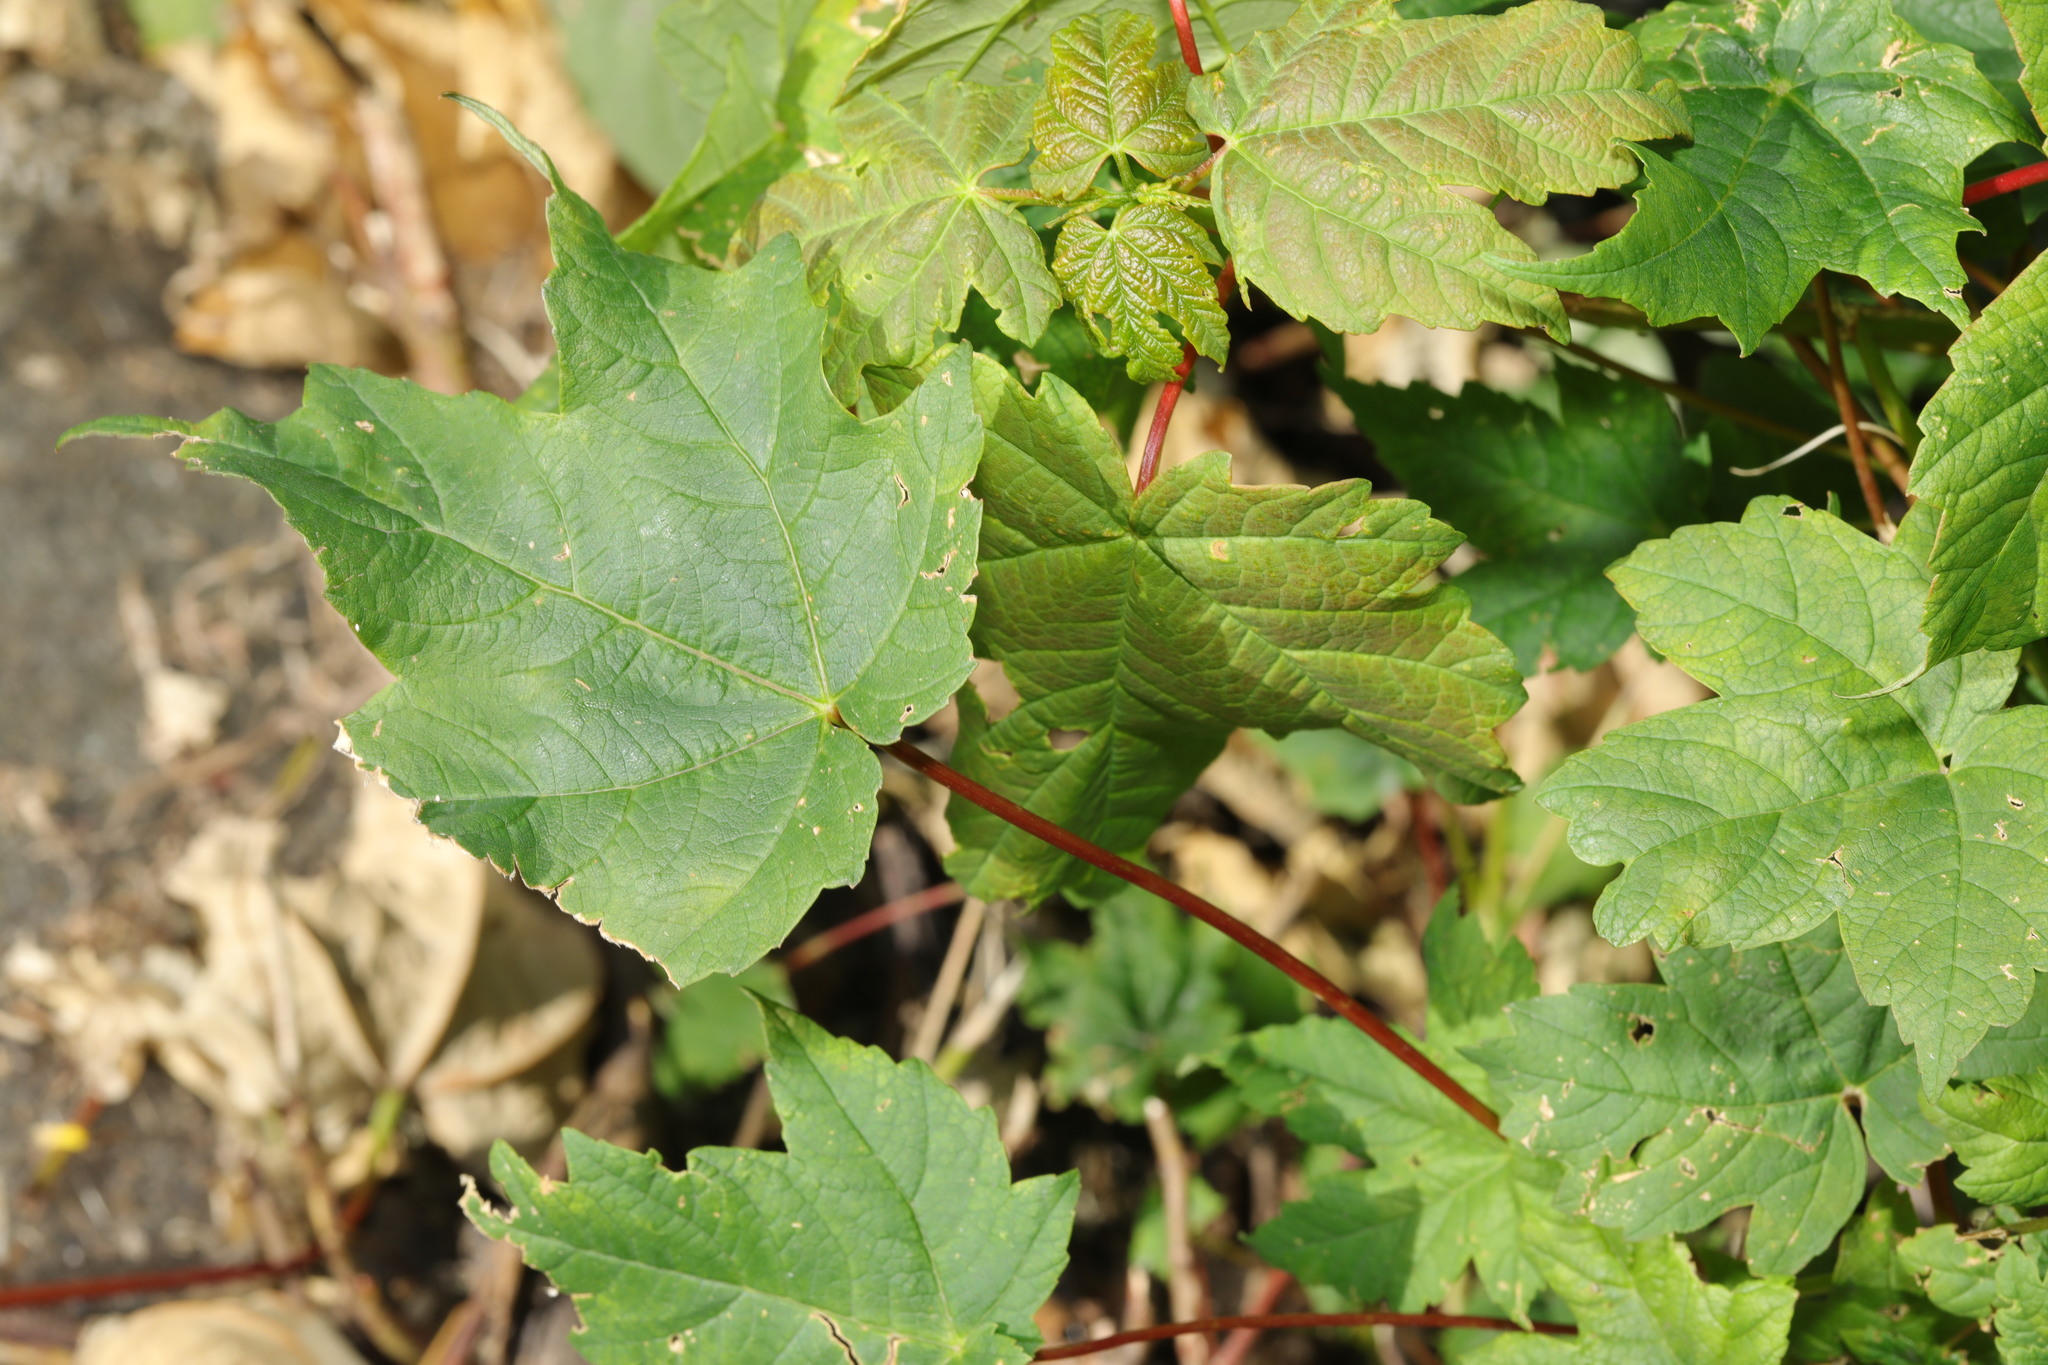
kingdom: Plantae
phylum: Tracheophyta
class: Magnoliopsida
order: Sapindales
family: Sapindaceae
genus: Acer
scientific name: Acer pseudoplatanus
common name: Sycamore
